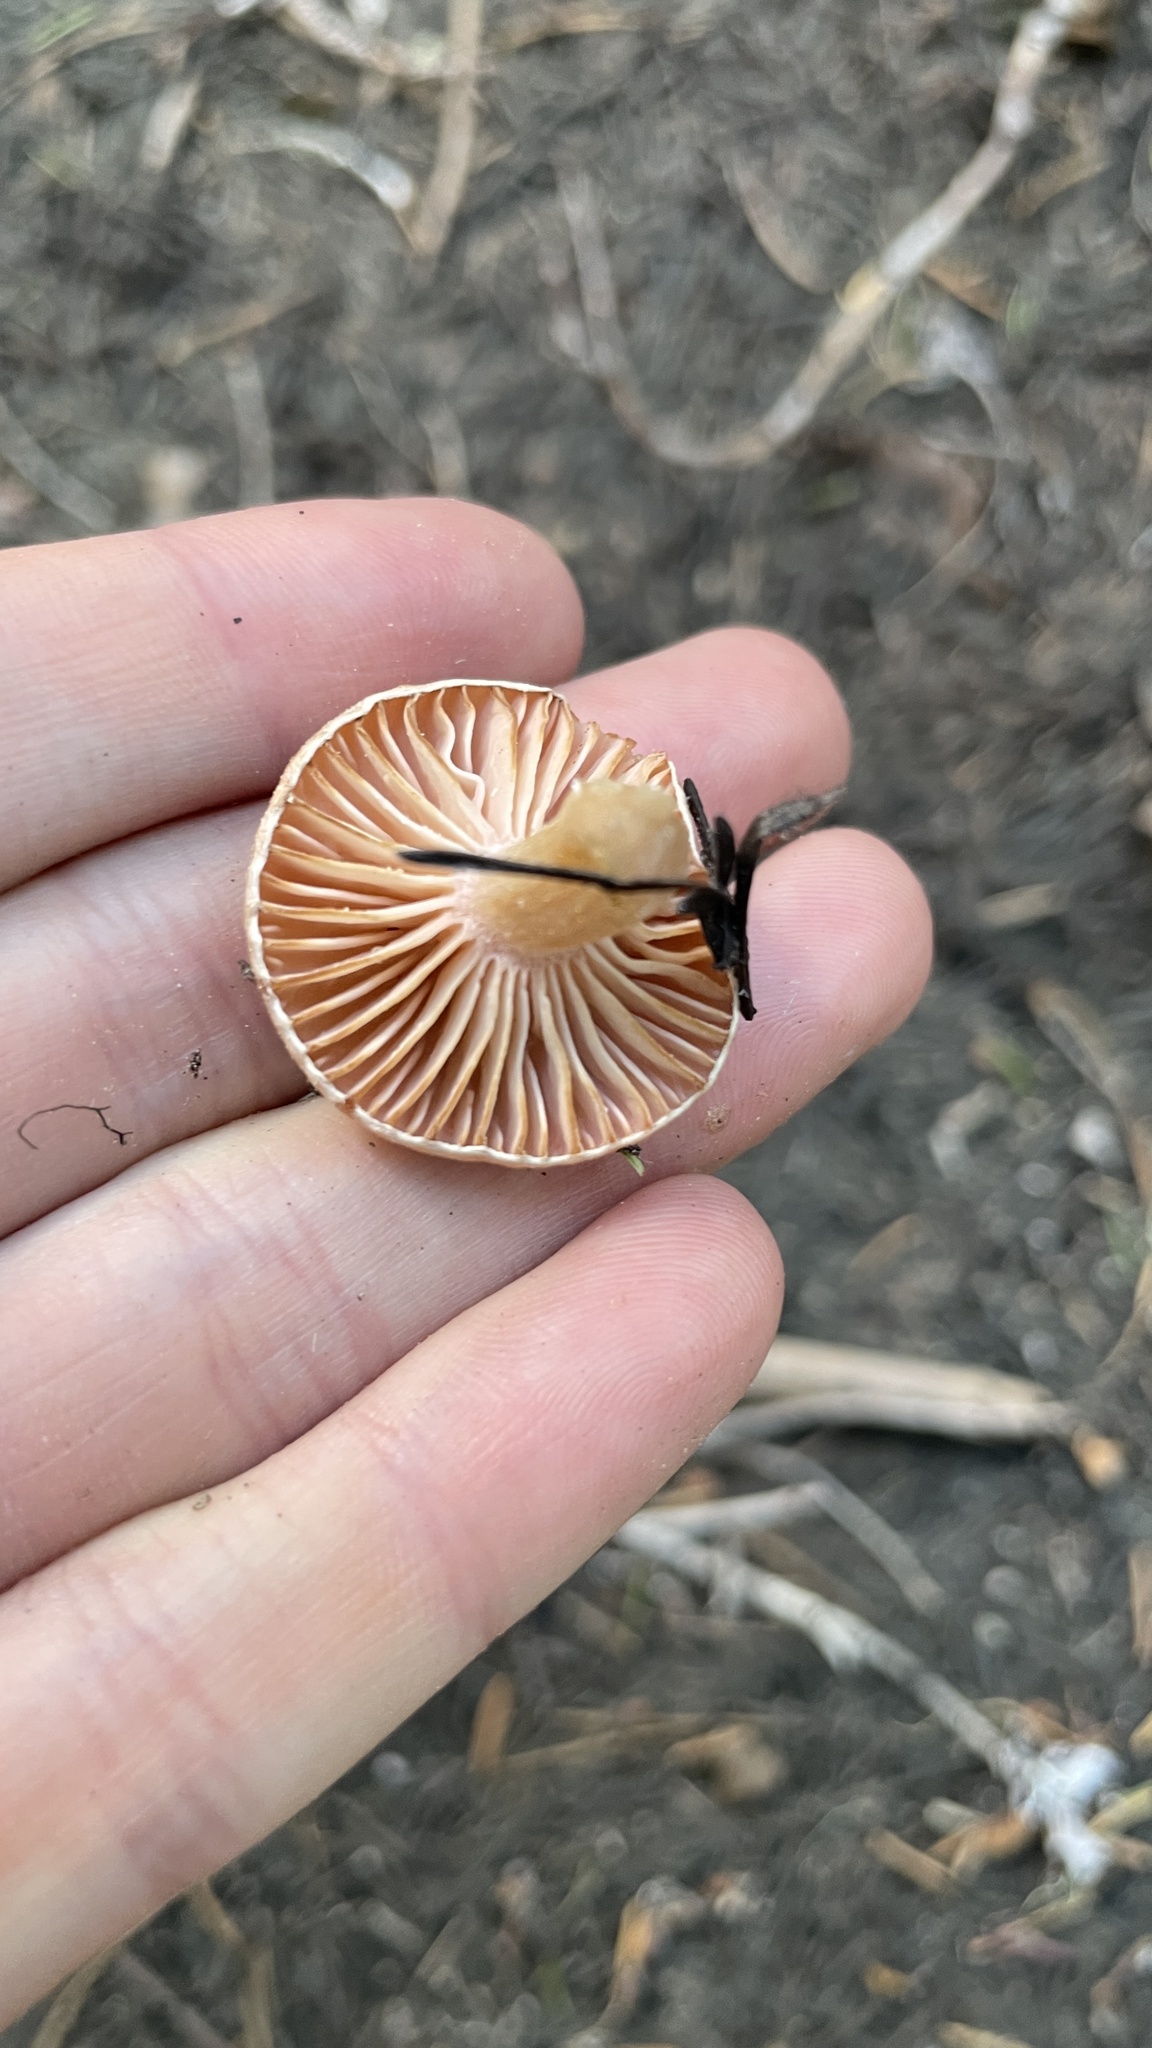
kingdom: Fungi
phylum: Basidiomycota
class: Agaricomycetes
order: Agaricales
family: Hygrophoraceae
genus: Hygrophorus
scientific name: Hygrophorus goetzei
